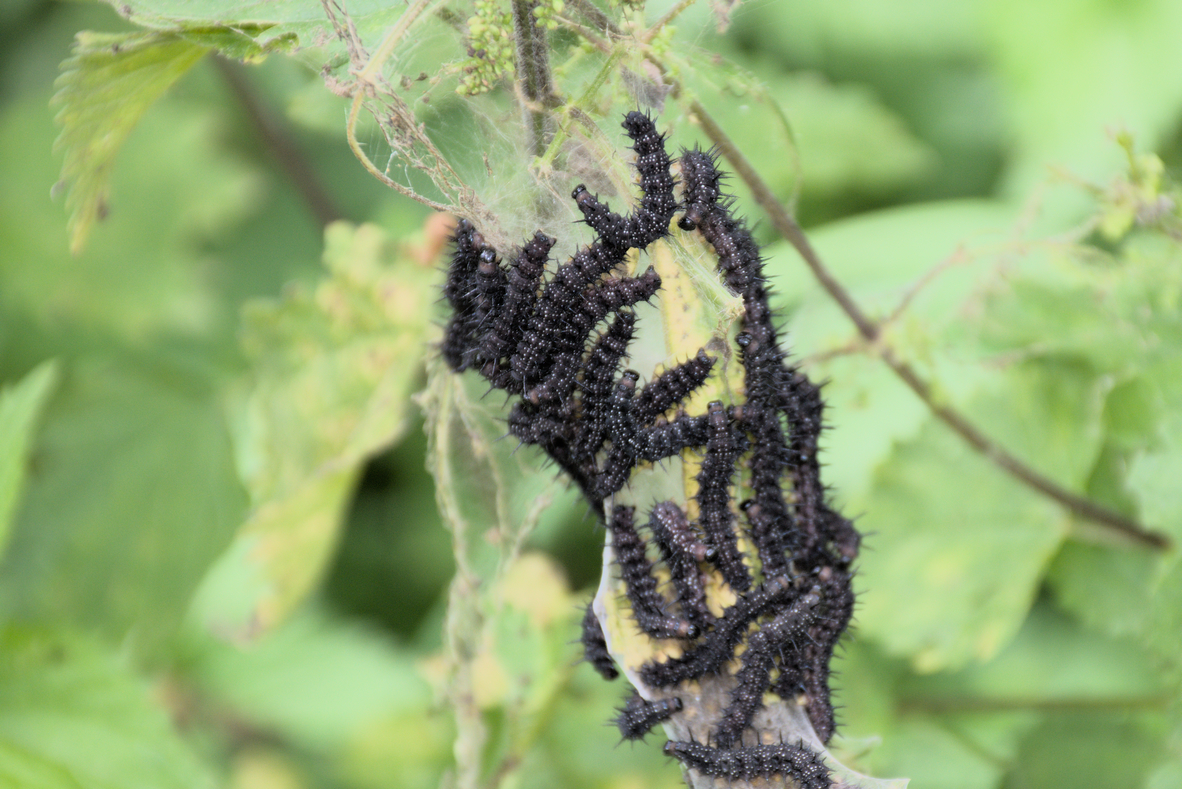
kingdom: Animalia
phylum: Arthropoda
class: Insecta
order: Lepidoptera
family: Nymphalidae
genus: Aglais
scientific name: Aglais io
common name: Peacock
